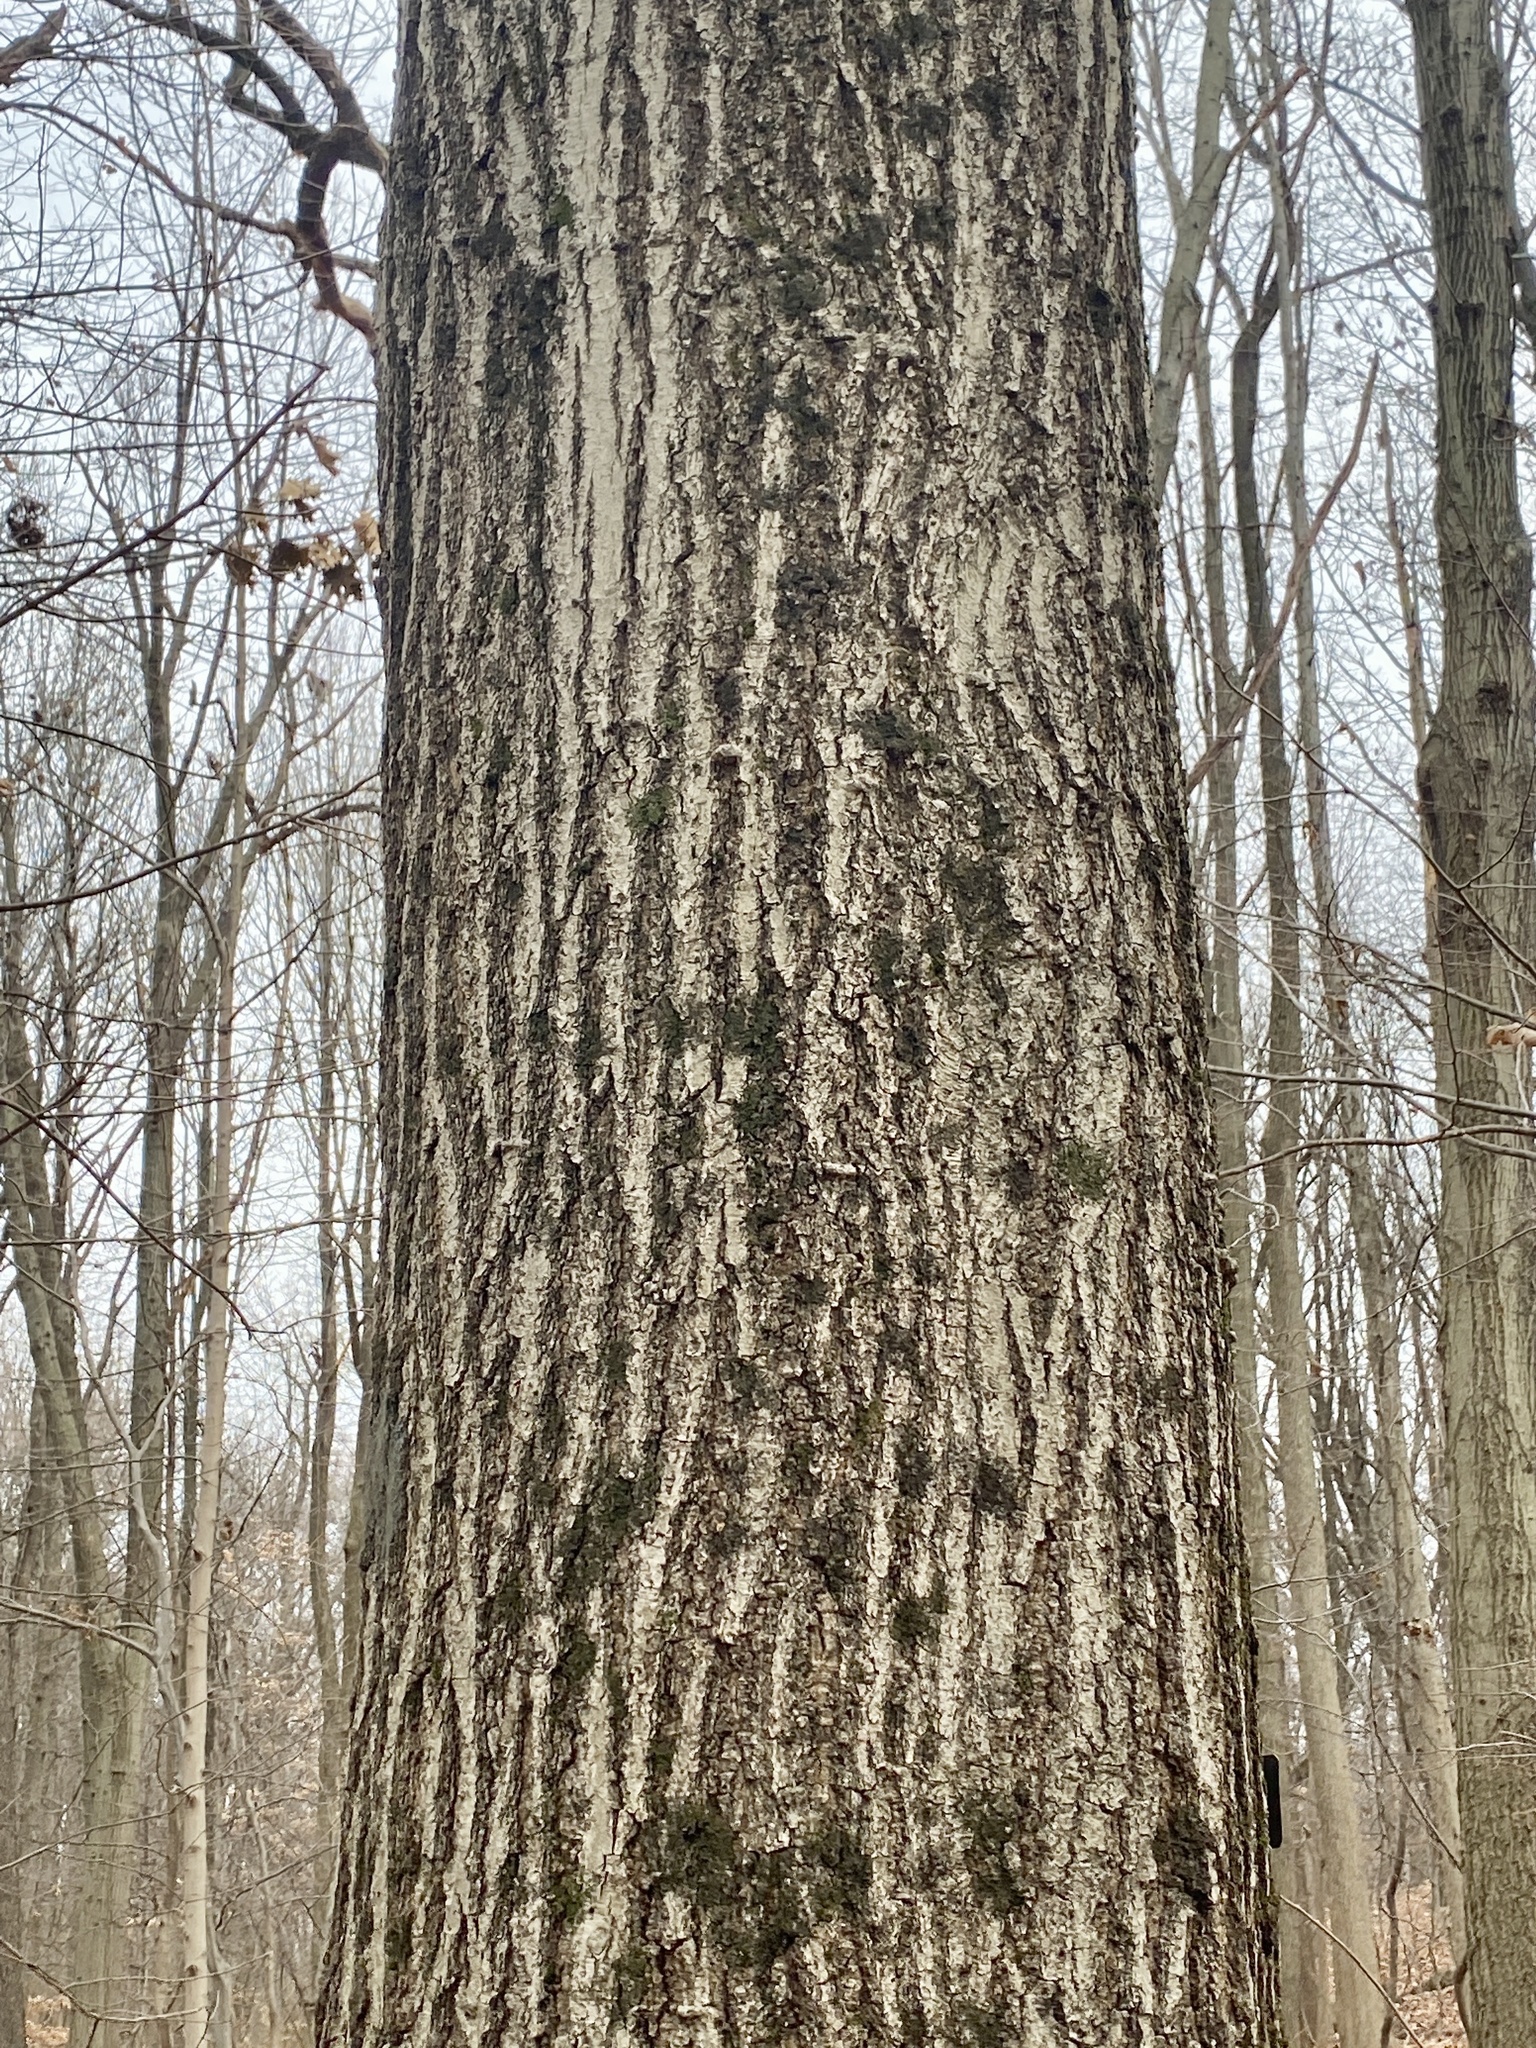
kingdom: Plantae
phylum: Tracheophyta
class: Magnoliopsida
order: Fagales
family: Fagaceae
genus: Quercus
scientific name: Quercus rubra
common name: Red oak
